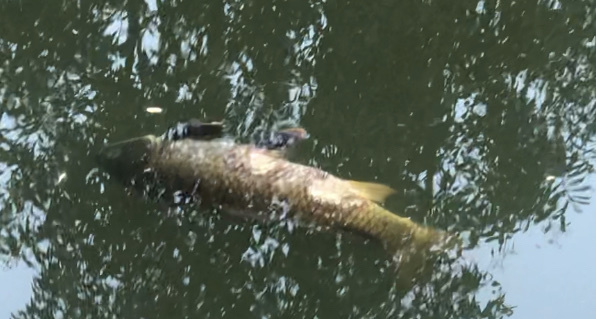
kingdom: Animalia
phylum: Chordata
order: Cypriniformes
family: Cyprinidae
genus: Cyprinus
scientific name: Cyprinus carpio
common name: Common carp
